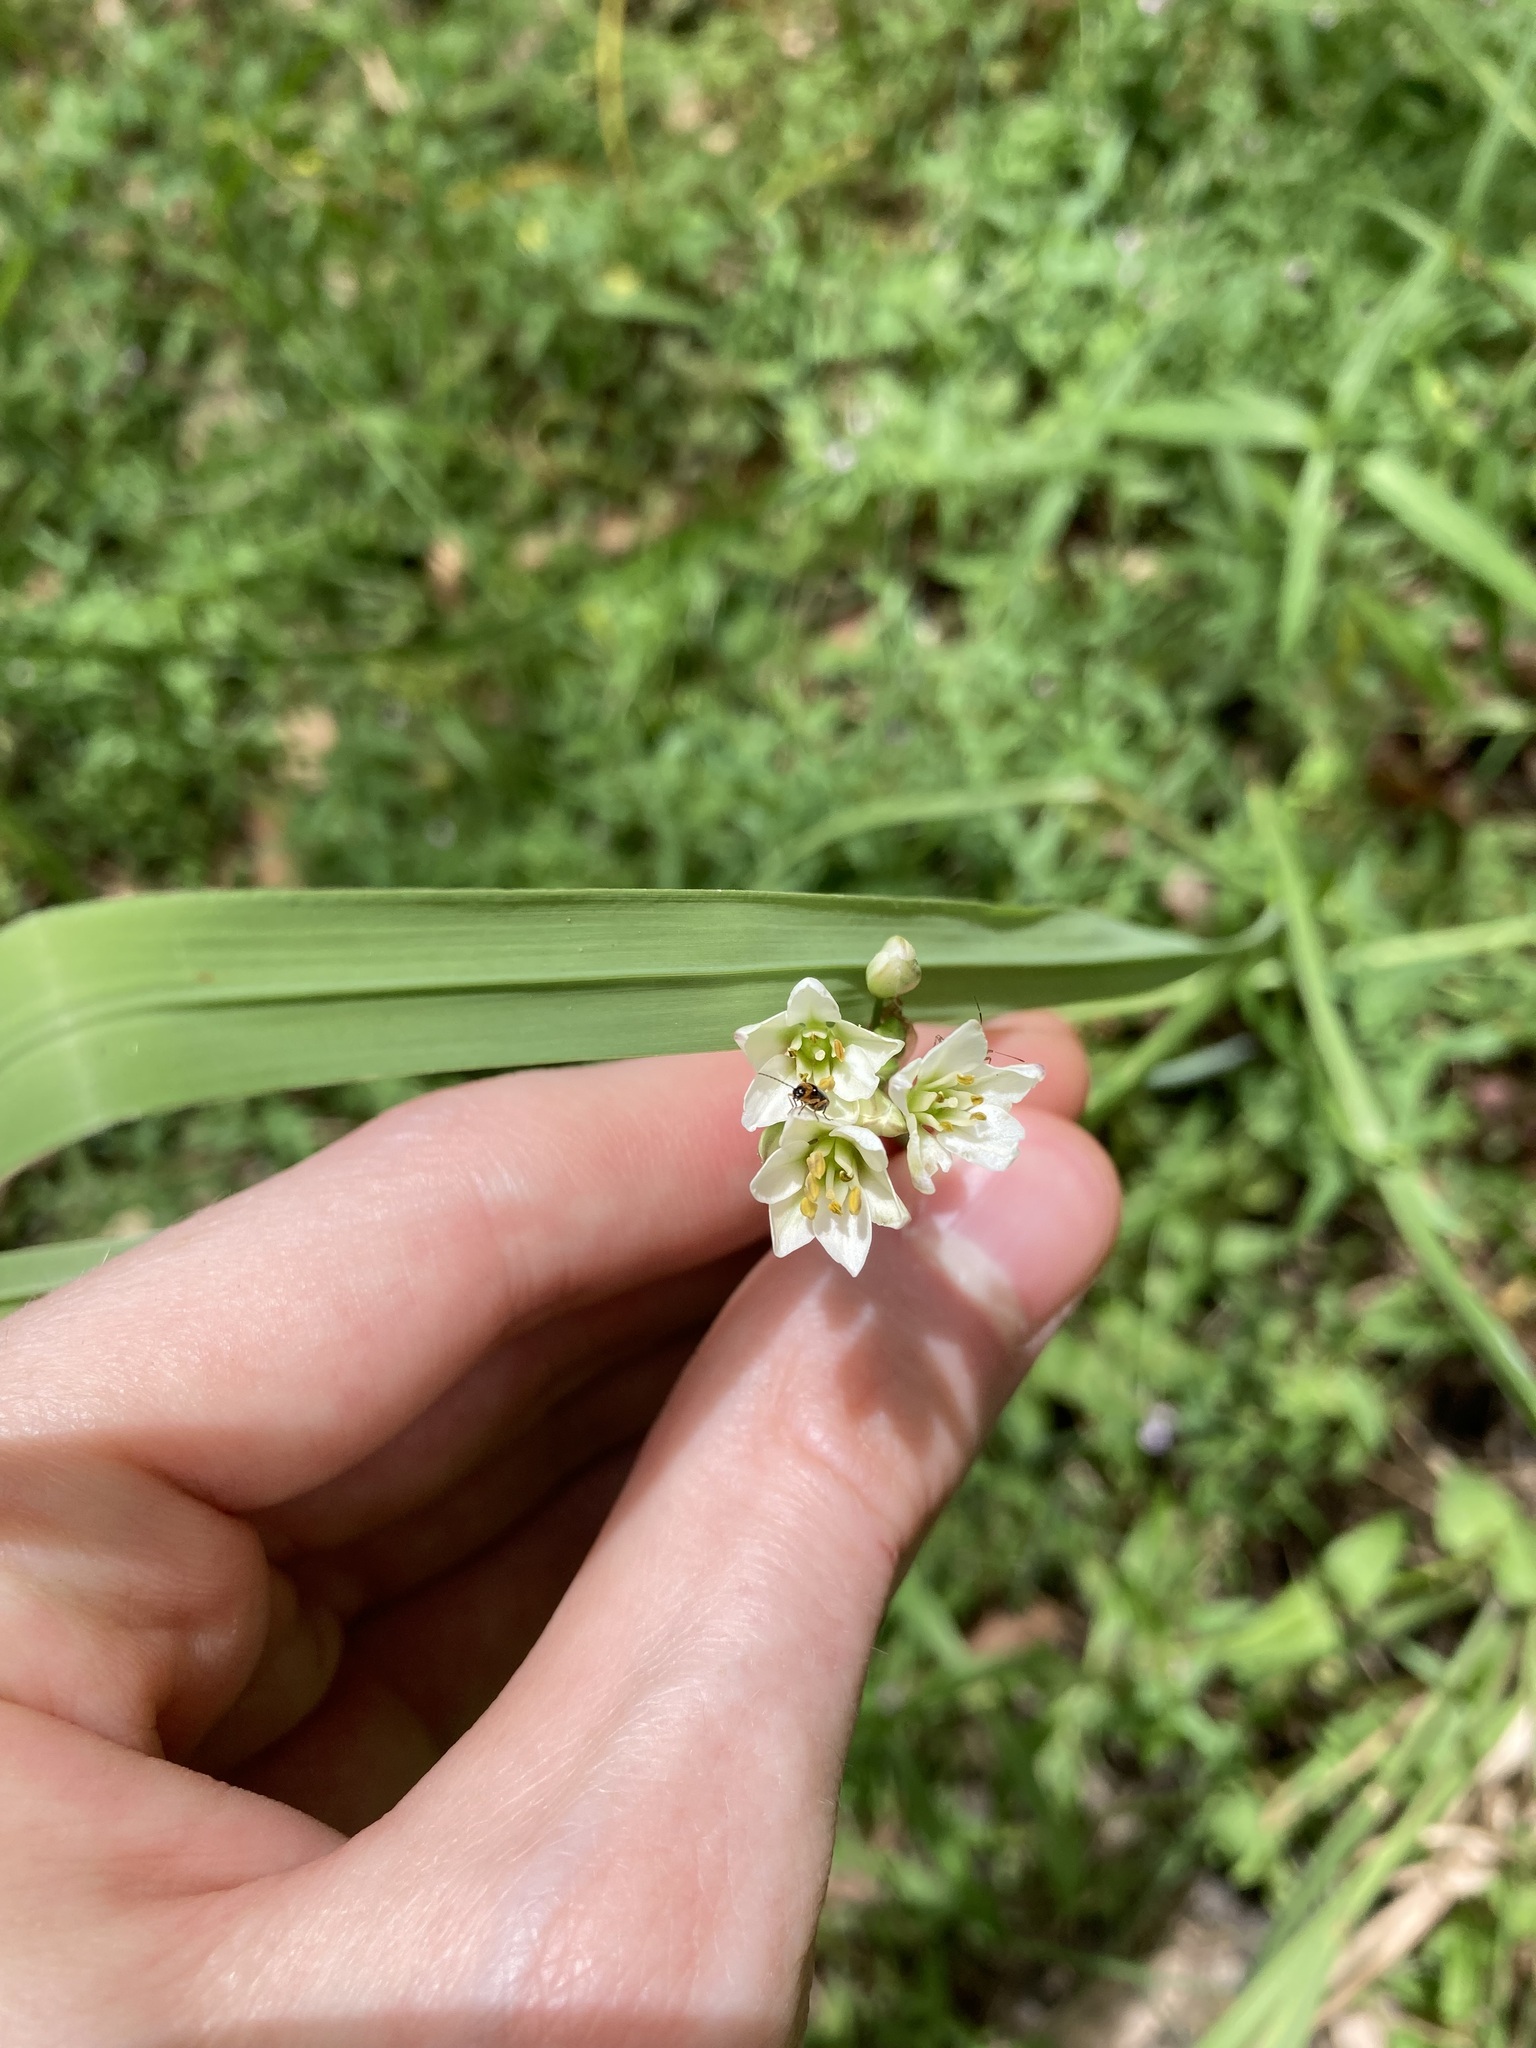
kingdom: Plantae
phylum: Tracheophyta
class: Liliopsida
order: Asparagales
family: Amaryllidaceae
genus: Nothoscordum
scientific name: Nothoscordum gracile
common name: Slender false garlic
